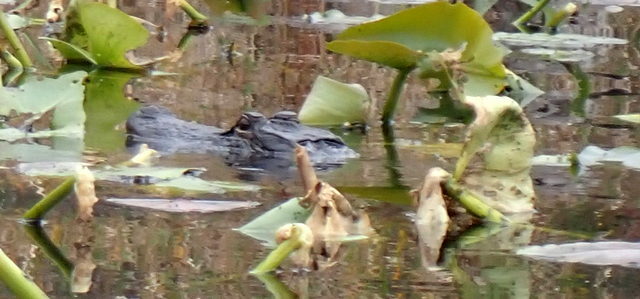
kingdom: Animalia
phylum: Chordata
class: Crocodylia
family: Alligatoridae
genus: Alligator
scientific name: Alligator mississippiensis
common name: American alligator
